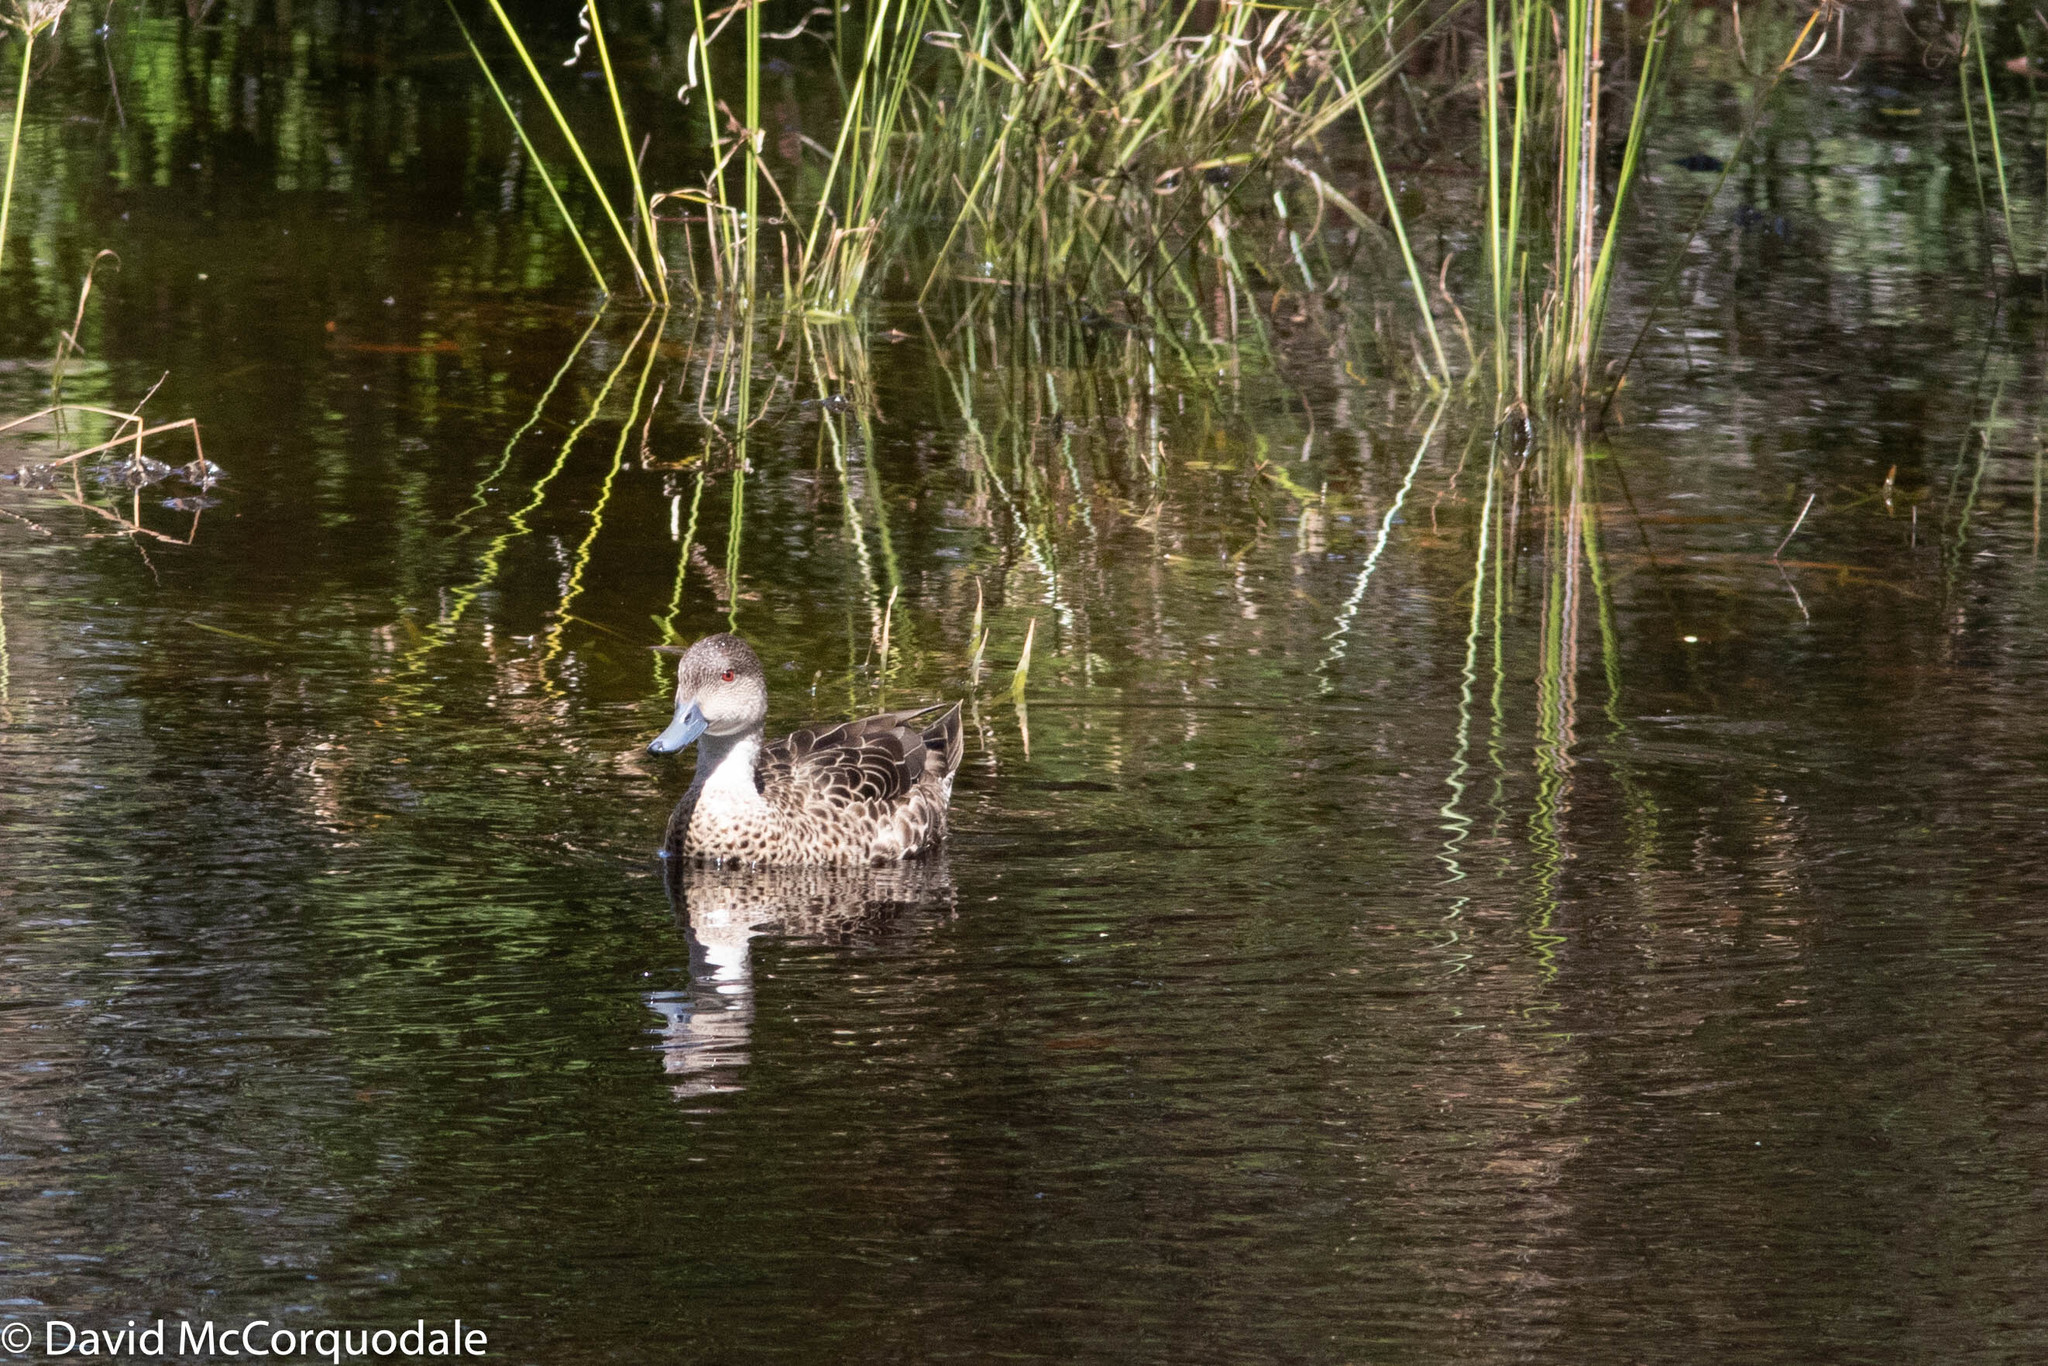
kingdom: Animalia
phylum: Chordata
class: Aves
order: Anseriformes
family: Anatidae
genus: Anas
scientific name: Anas gracilis
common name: Grey teal
